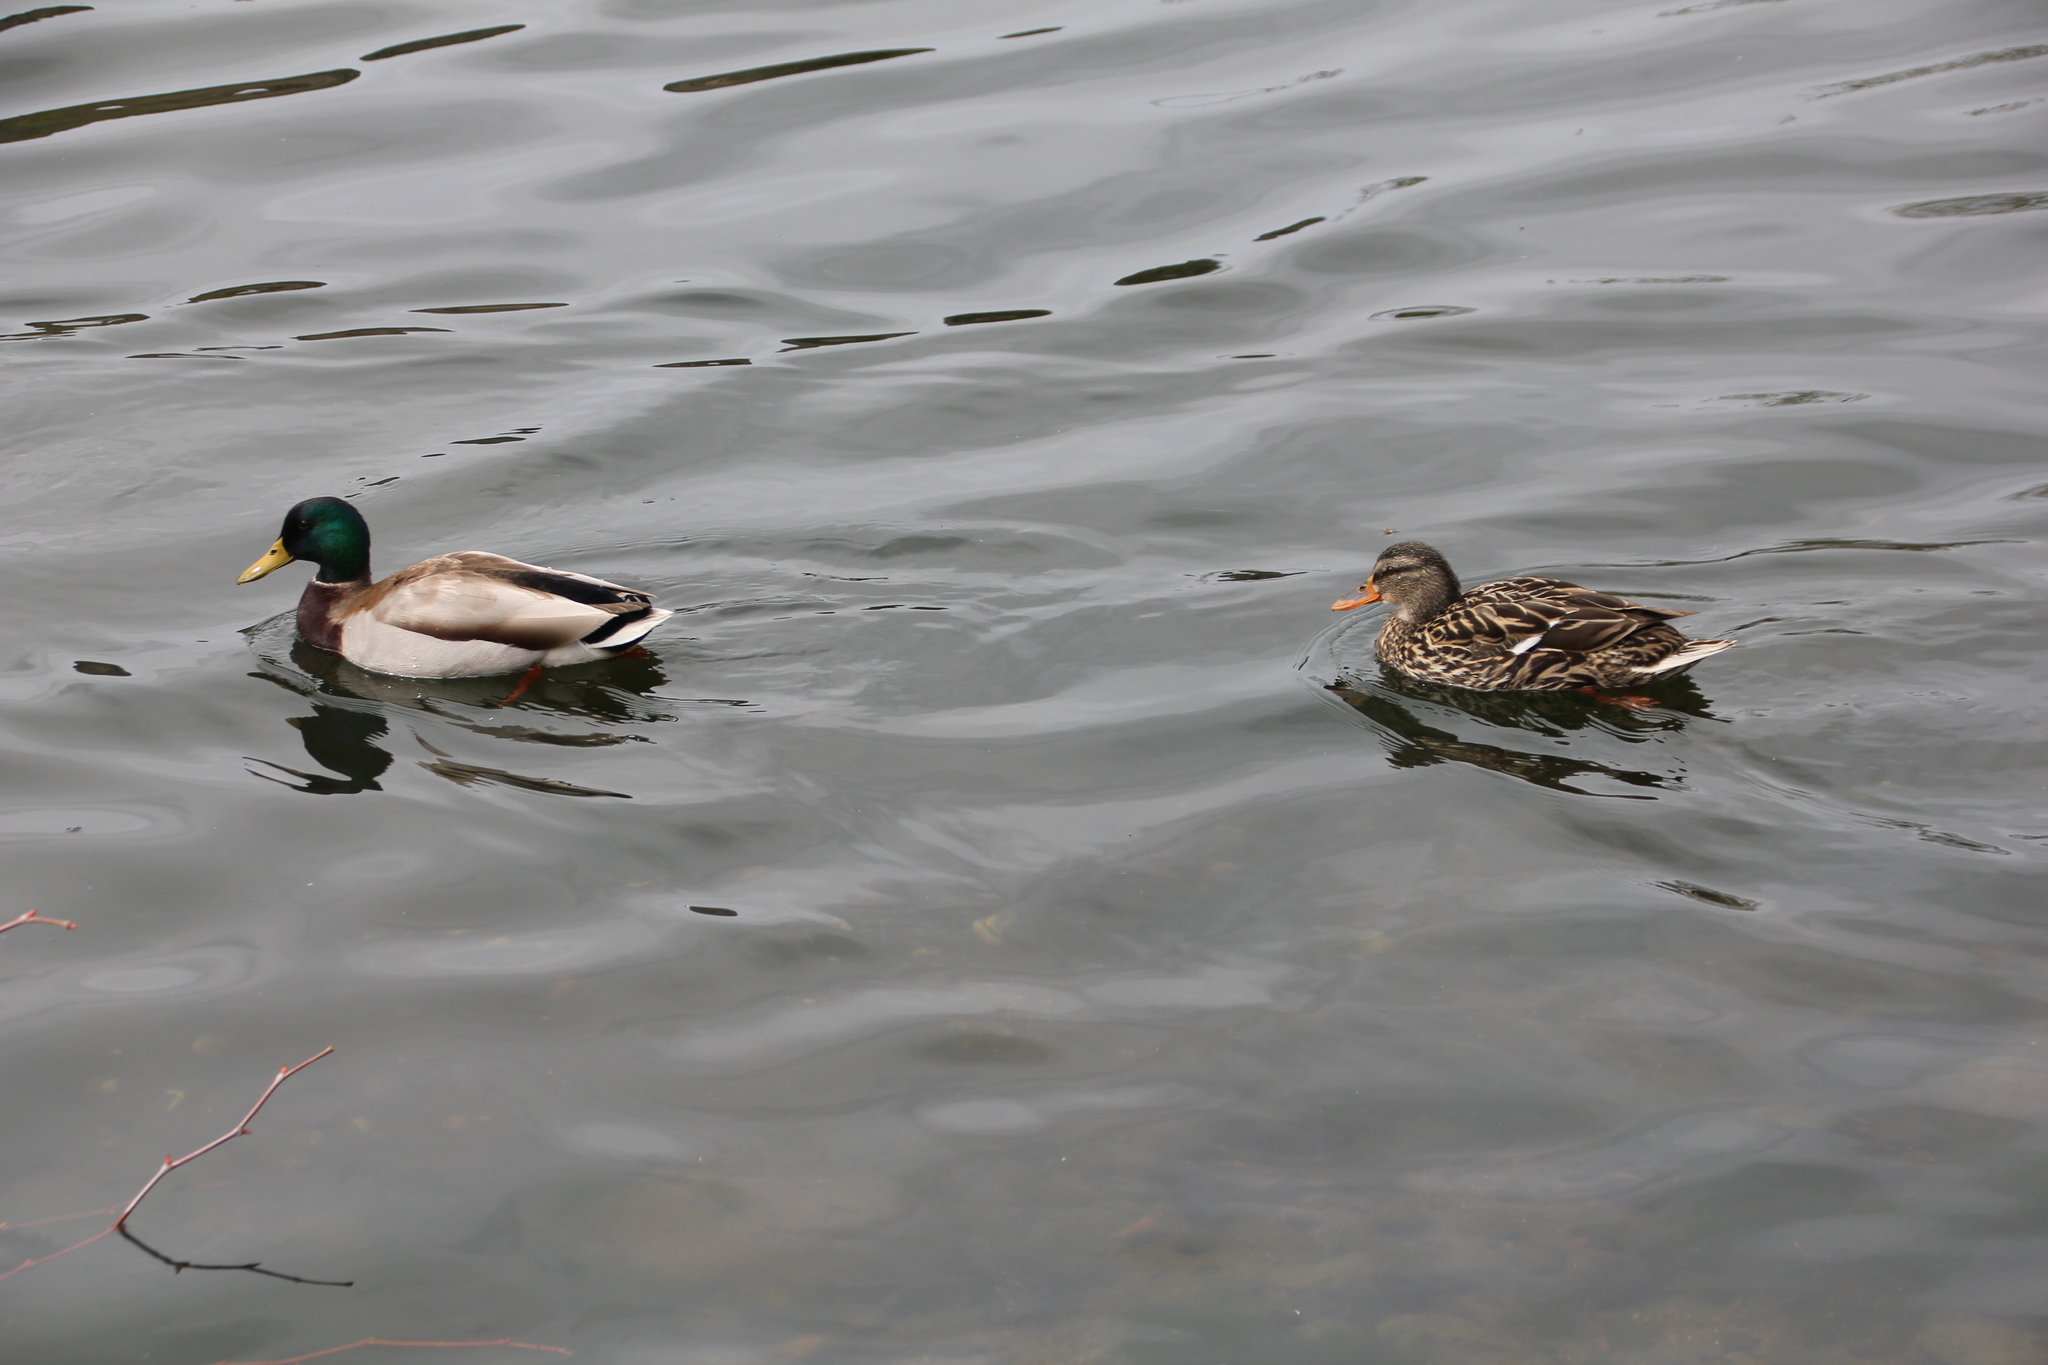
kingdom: Animalia
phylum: Chordata
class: Aves
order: Anseriformes
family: Anatidae
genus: Anas
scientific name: Anas platyrhynchos
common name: Mallard
